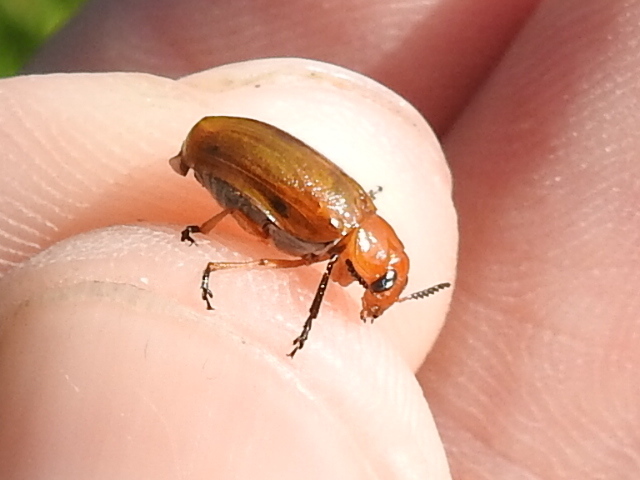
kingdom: Animalia
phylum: Arthropoda
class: Insecta
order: Coleoptera
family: Chrysomelidae
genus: Anomoea
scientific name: Anomoea laticlavia
